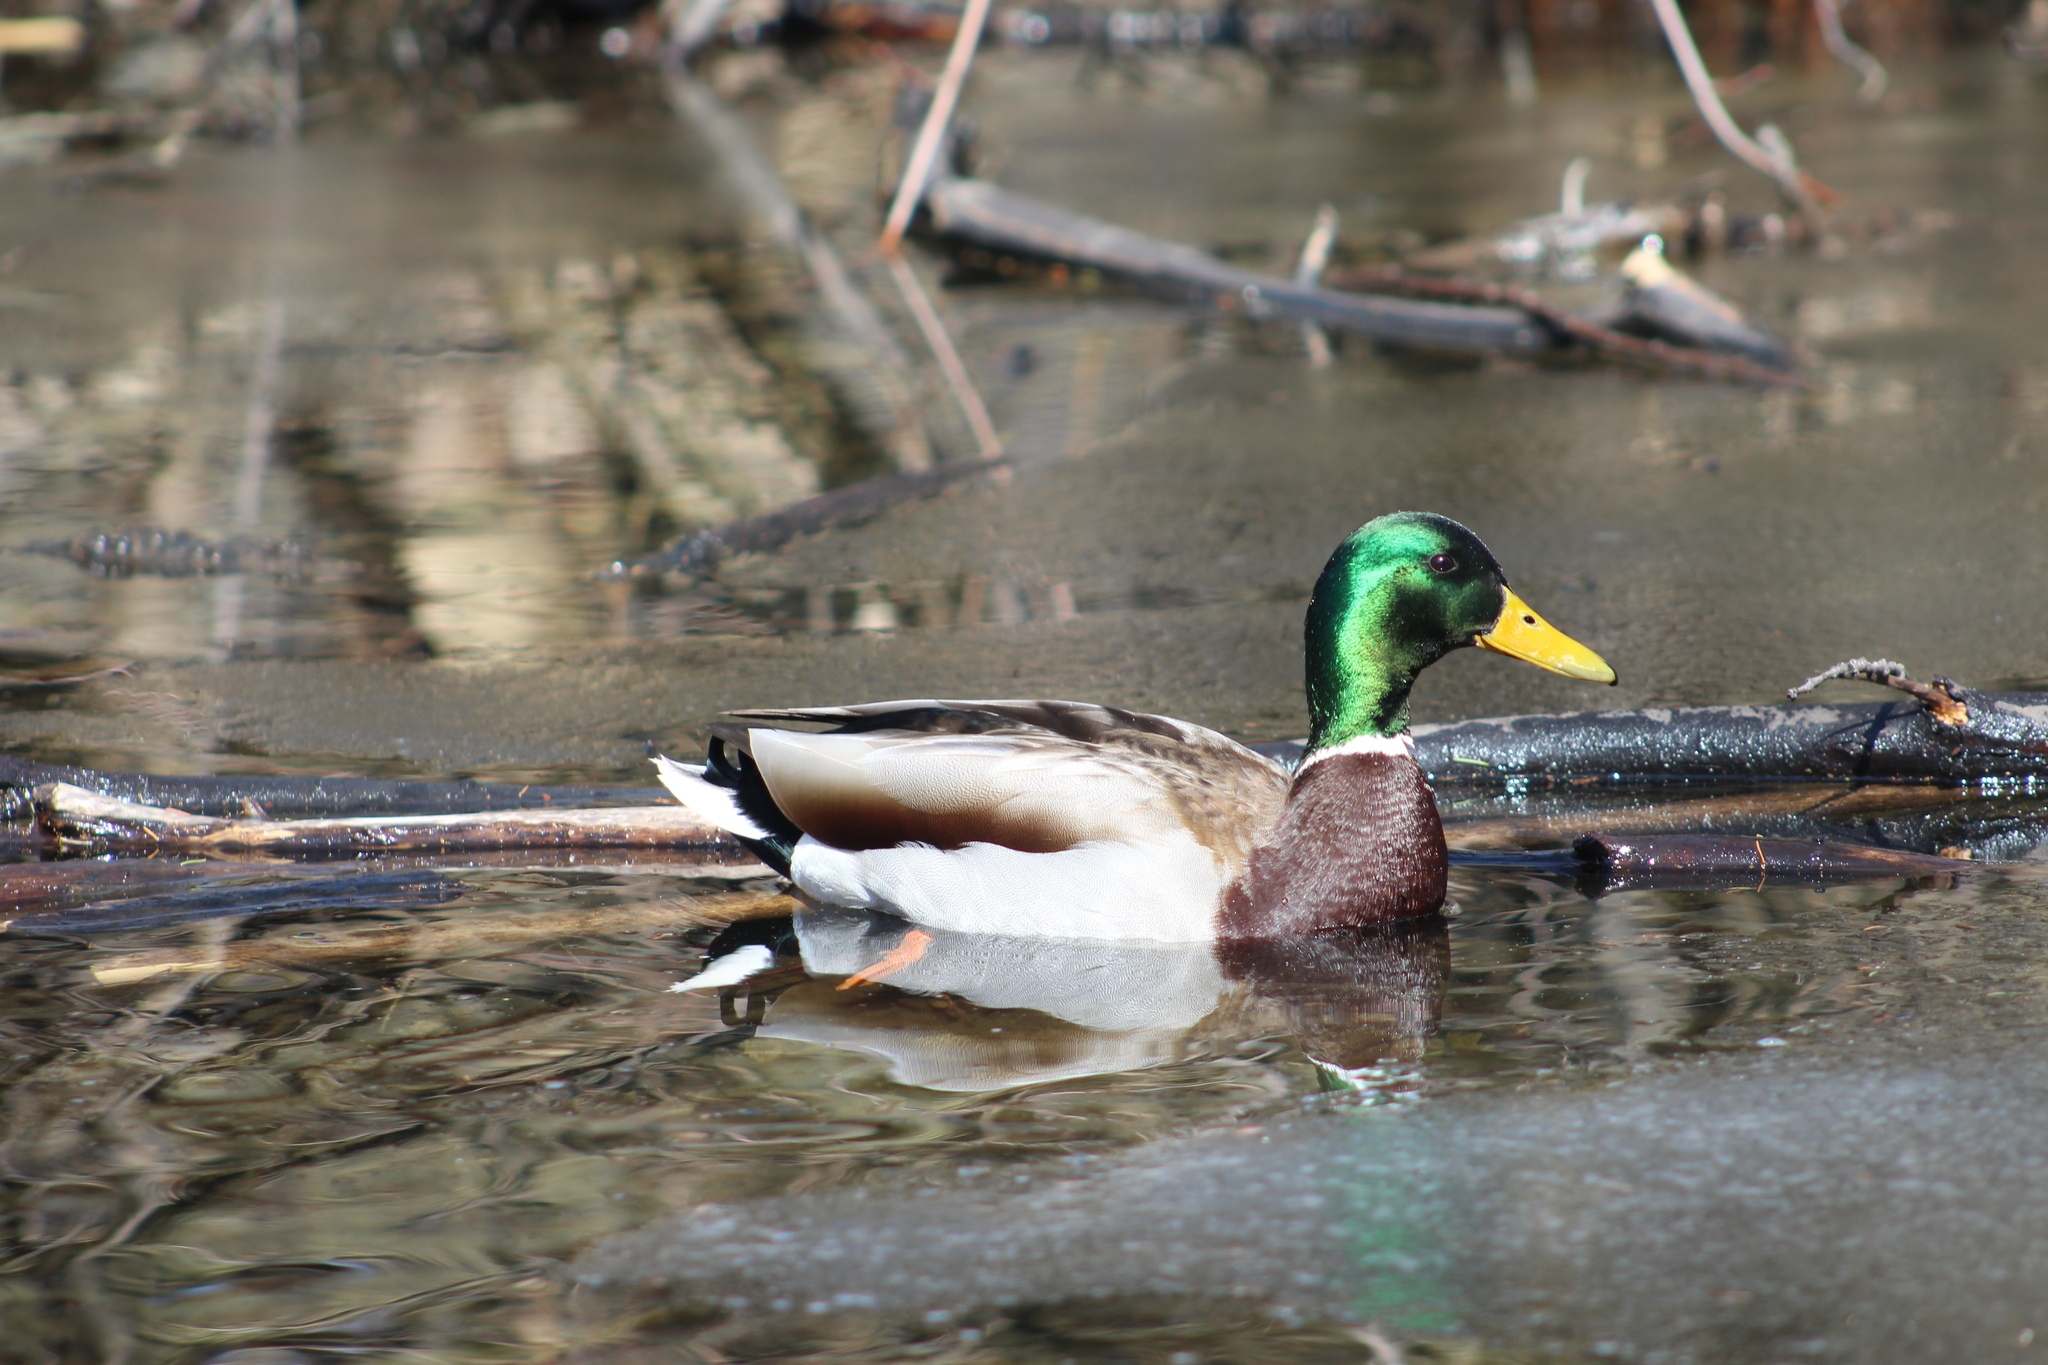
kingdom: Animalia
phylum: Chordata
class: Aves
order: Anseriformes
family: Anatidae
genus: Anas
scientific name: Anas platyrhynchos
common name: Mallard
